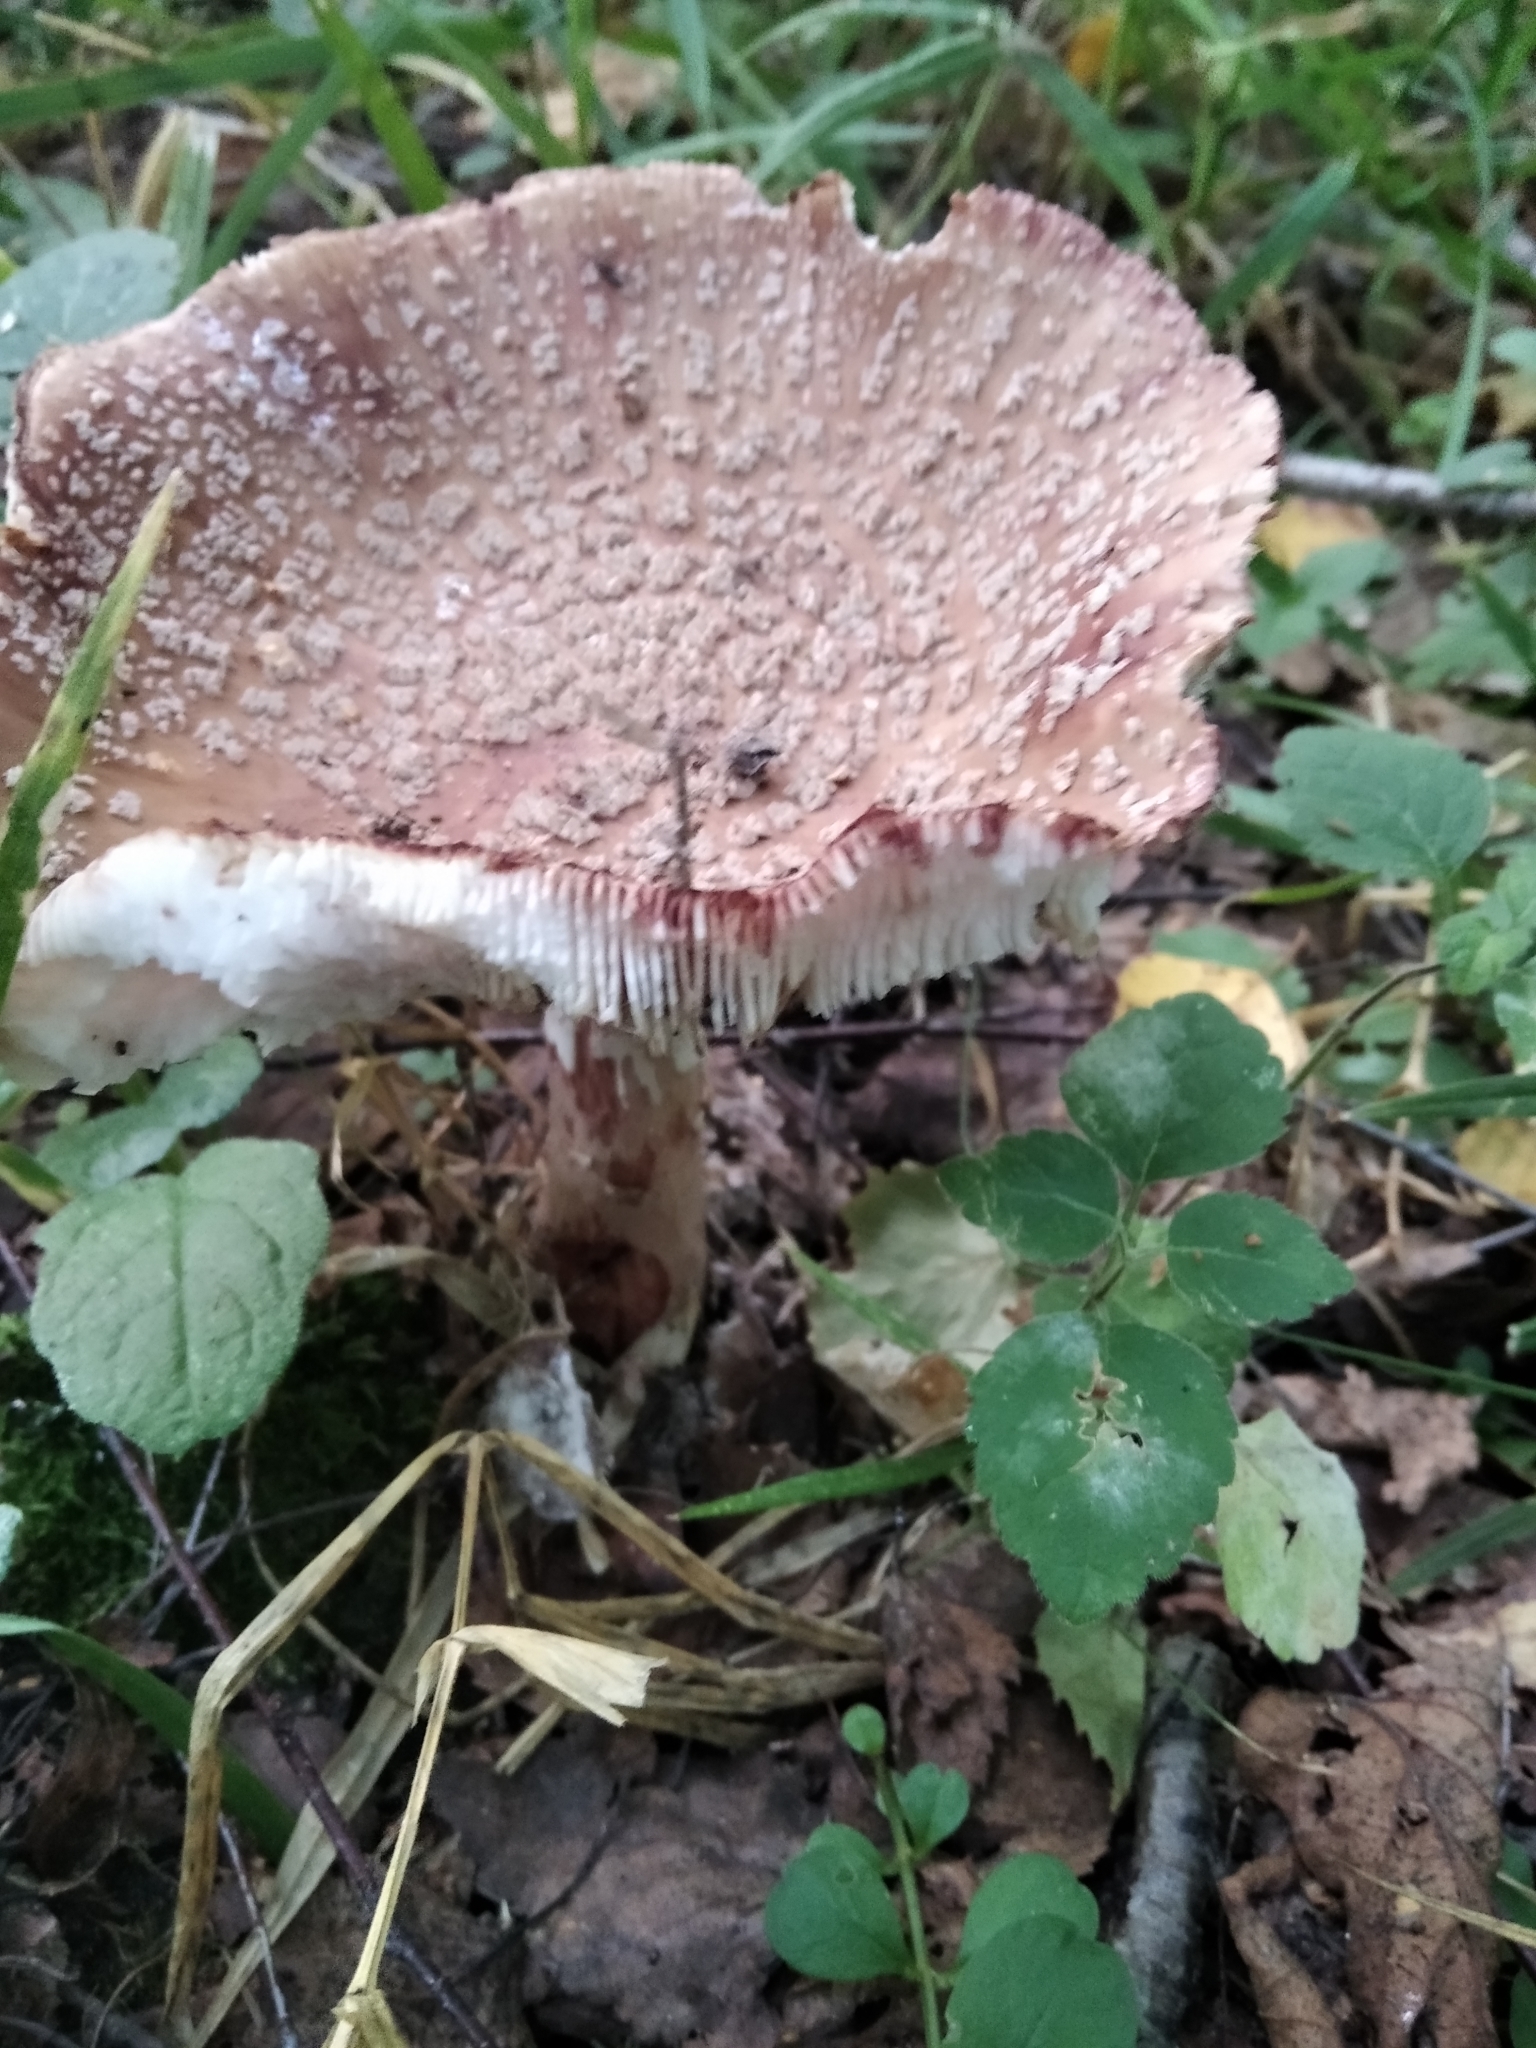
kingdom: Fungi
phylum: Basidiomycota
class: Agaricomycetes
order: Agaricales
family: Amanitaceae
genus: Amanita
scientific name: Amanita rubescens
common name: Blusher
